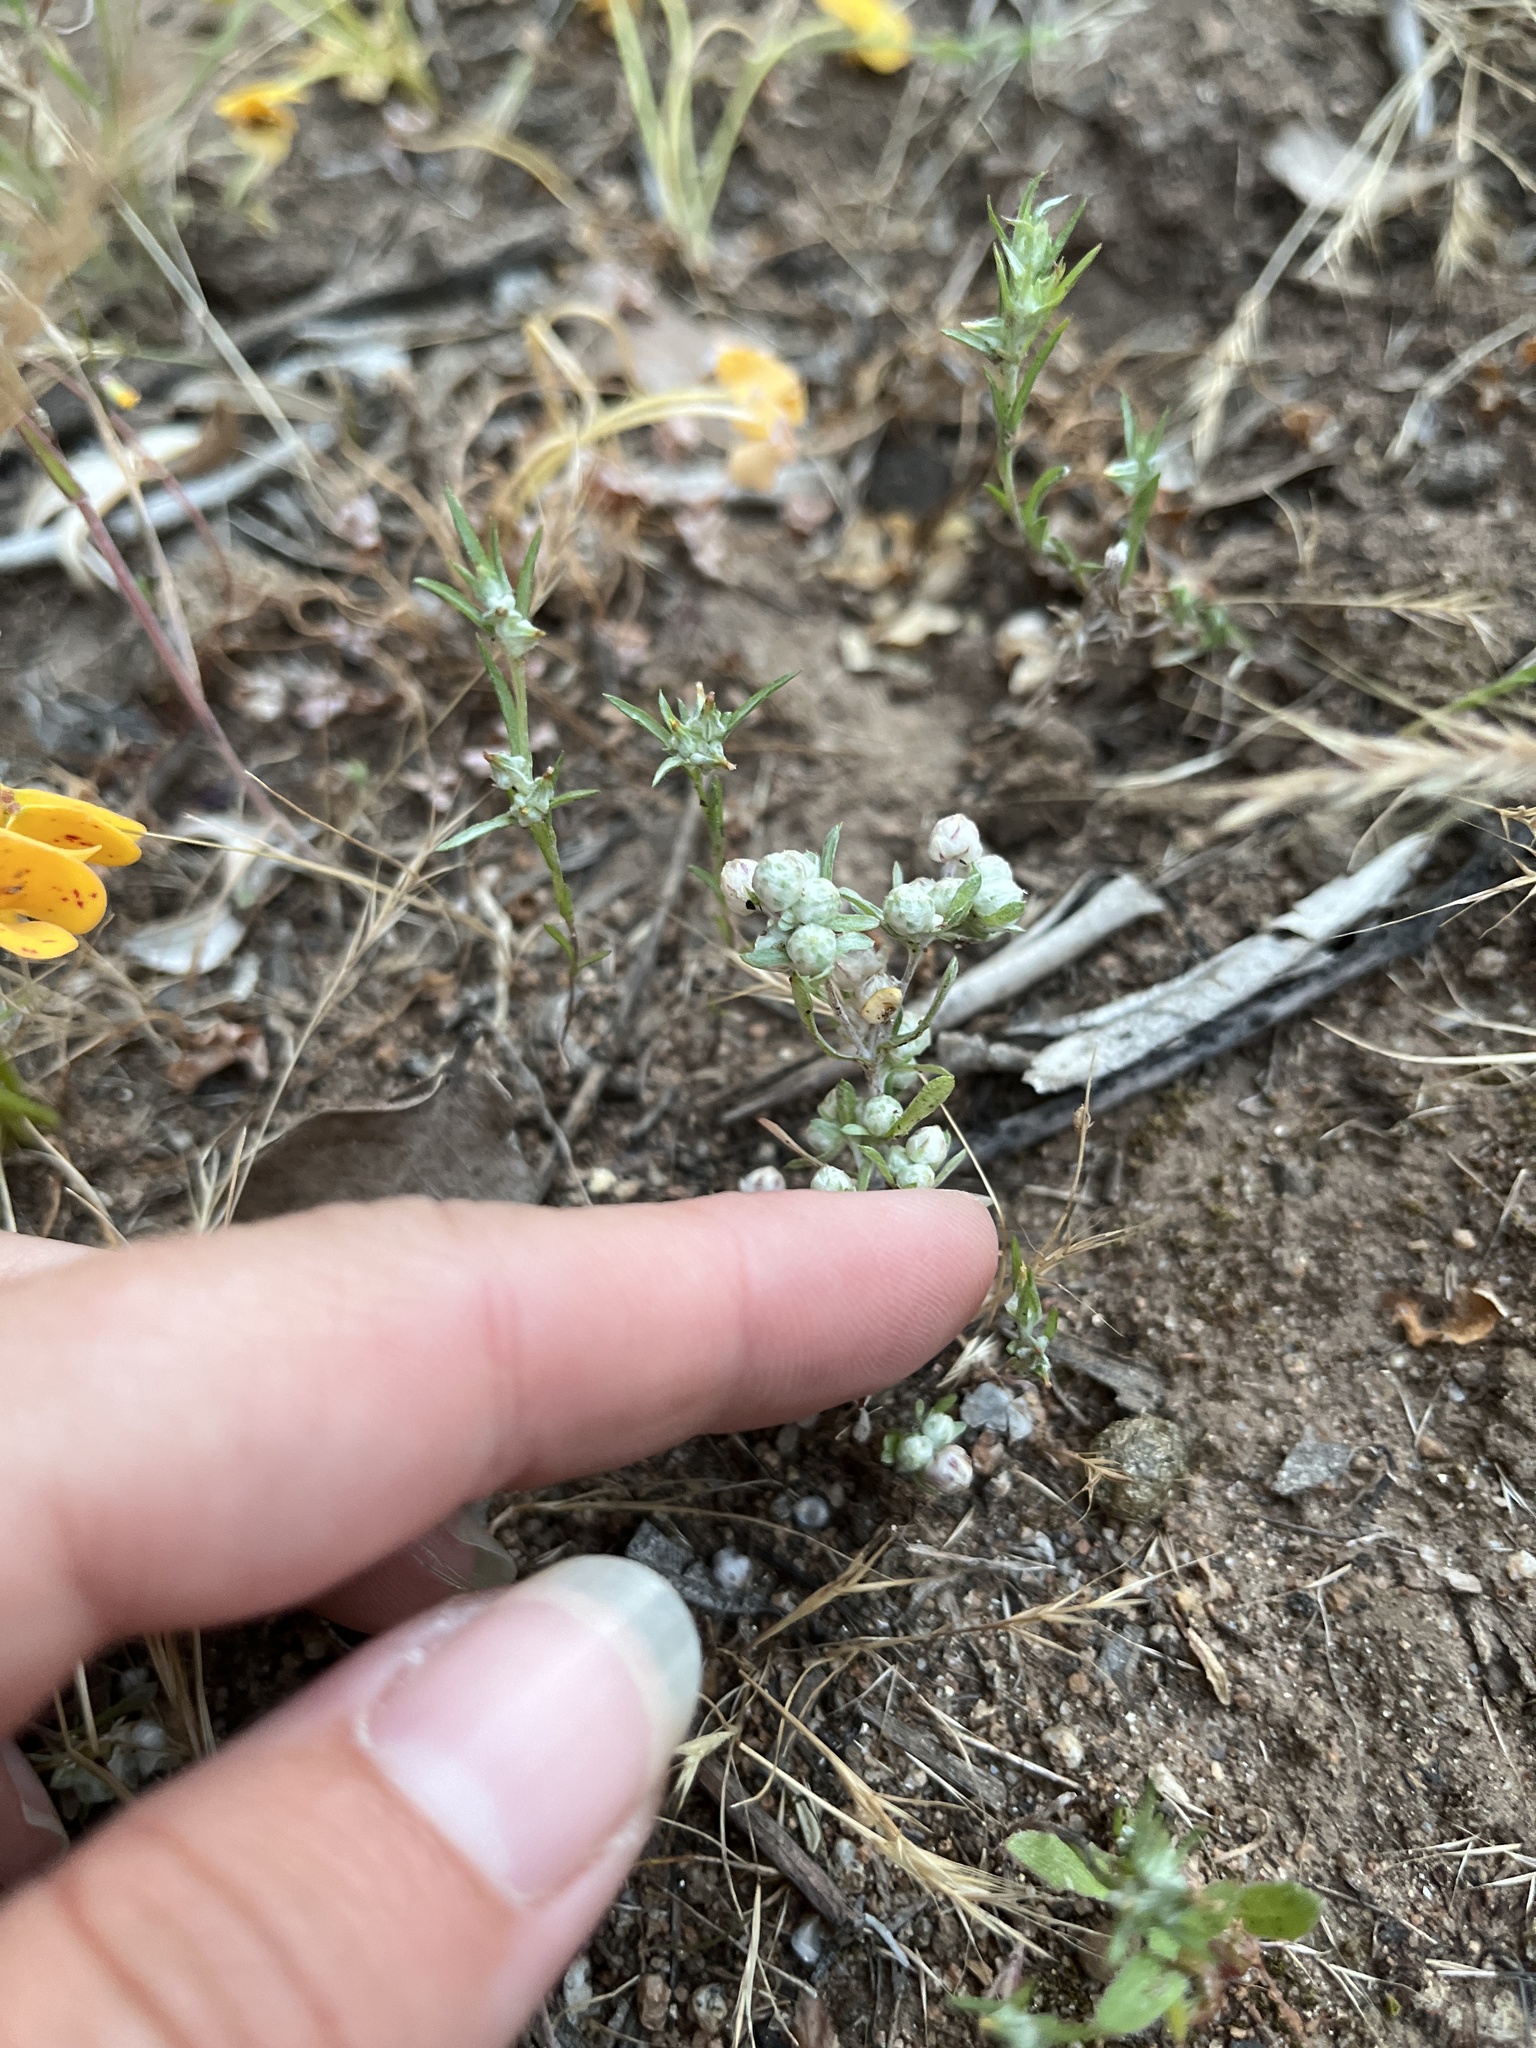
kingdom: Plantae
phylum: Tracheophyta
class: Magnoliopsida
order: Asterales
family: Asteraceae
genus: Stylocline
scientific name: Stylocline gnaphaloides
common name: Everlasting nest-straw
